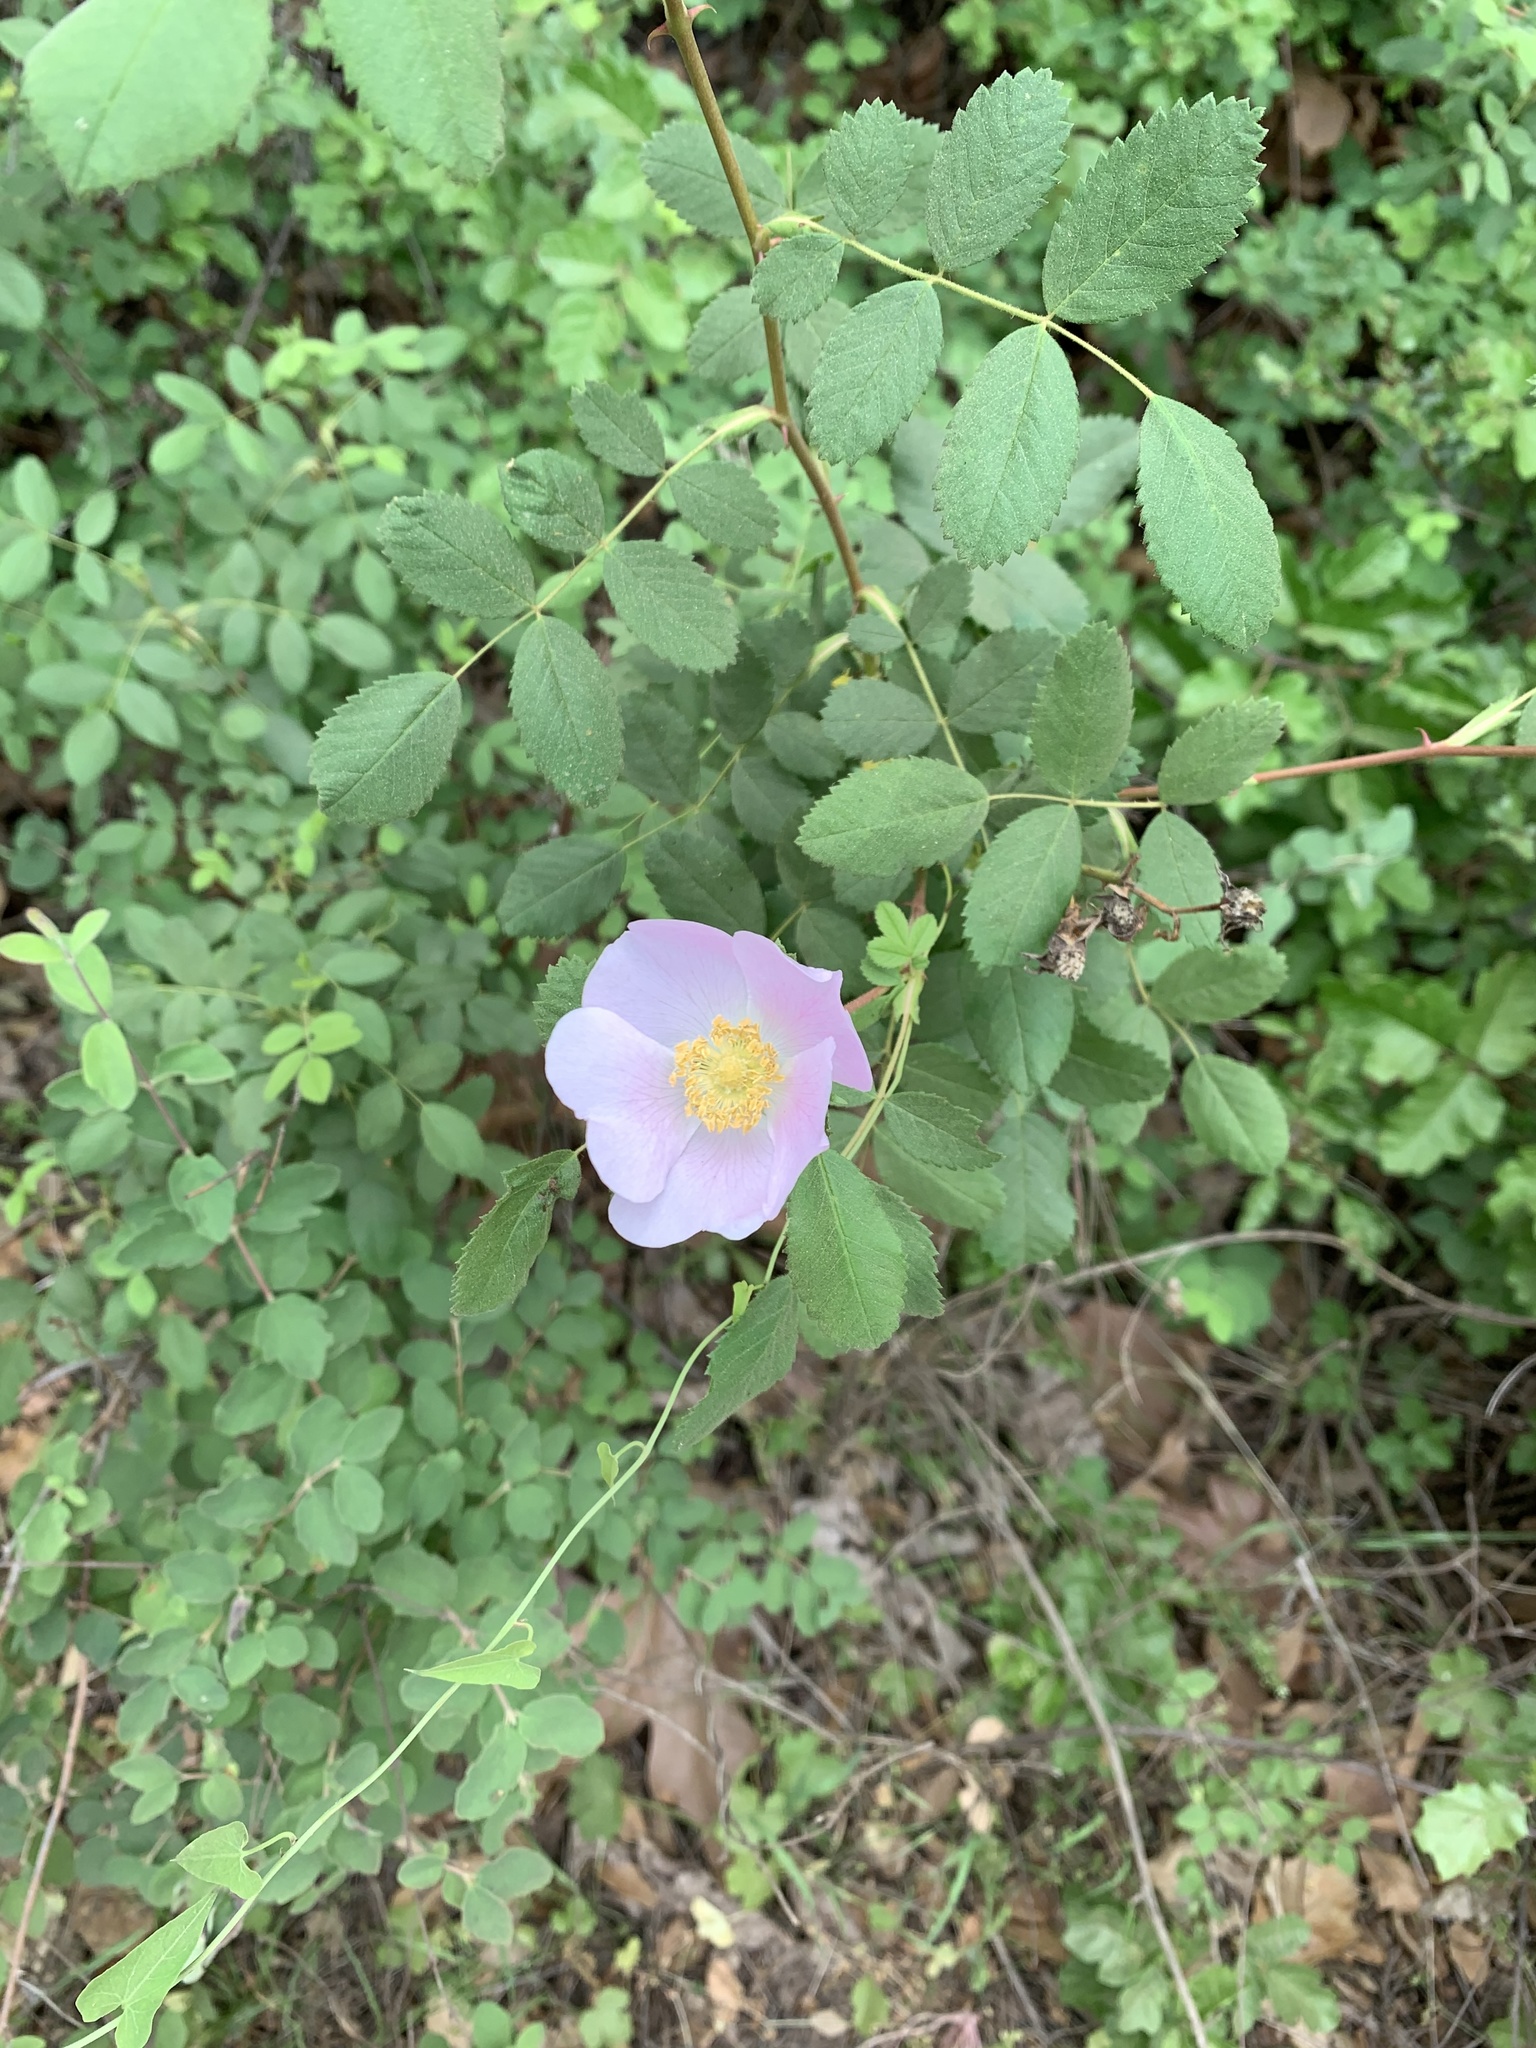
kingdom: Plantae
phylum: Tracheophyta
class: Magnoliopsida
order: Rosales
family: Rosaceae
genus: Rosa
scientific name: Rosa californica
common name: California rose
